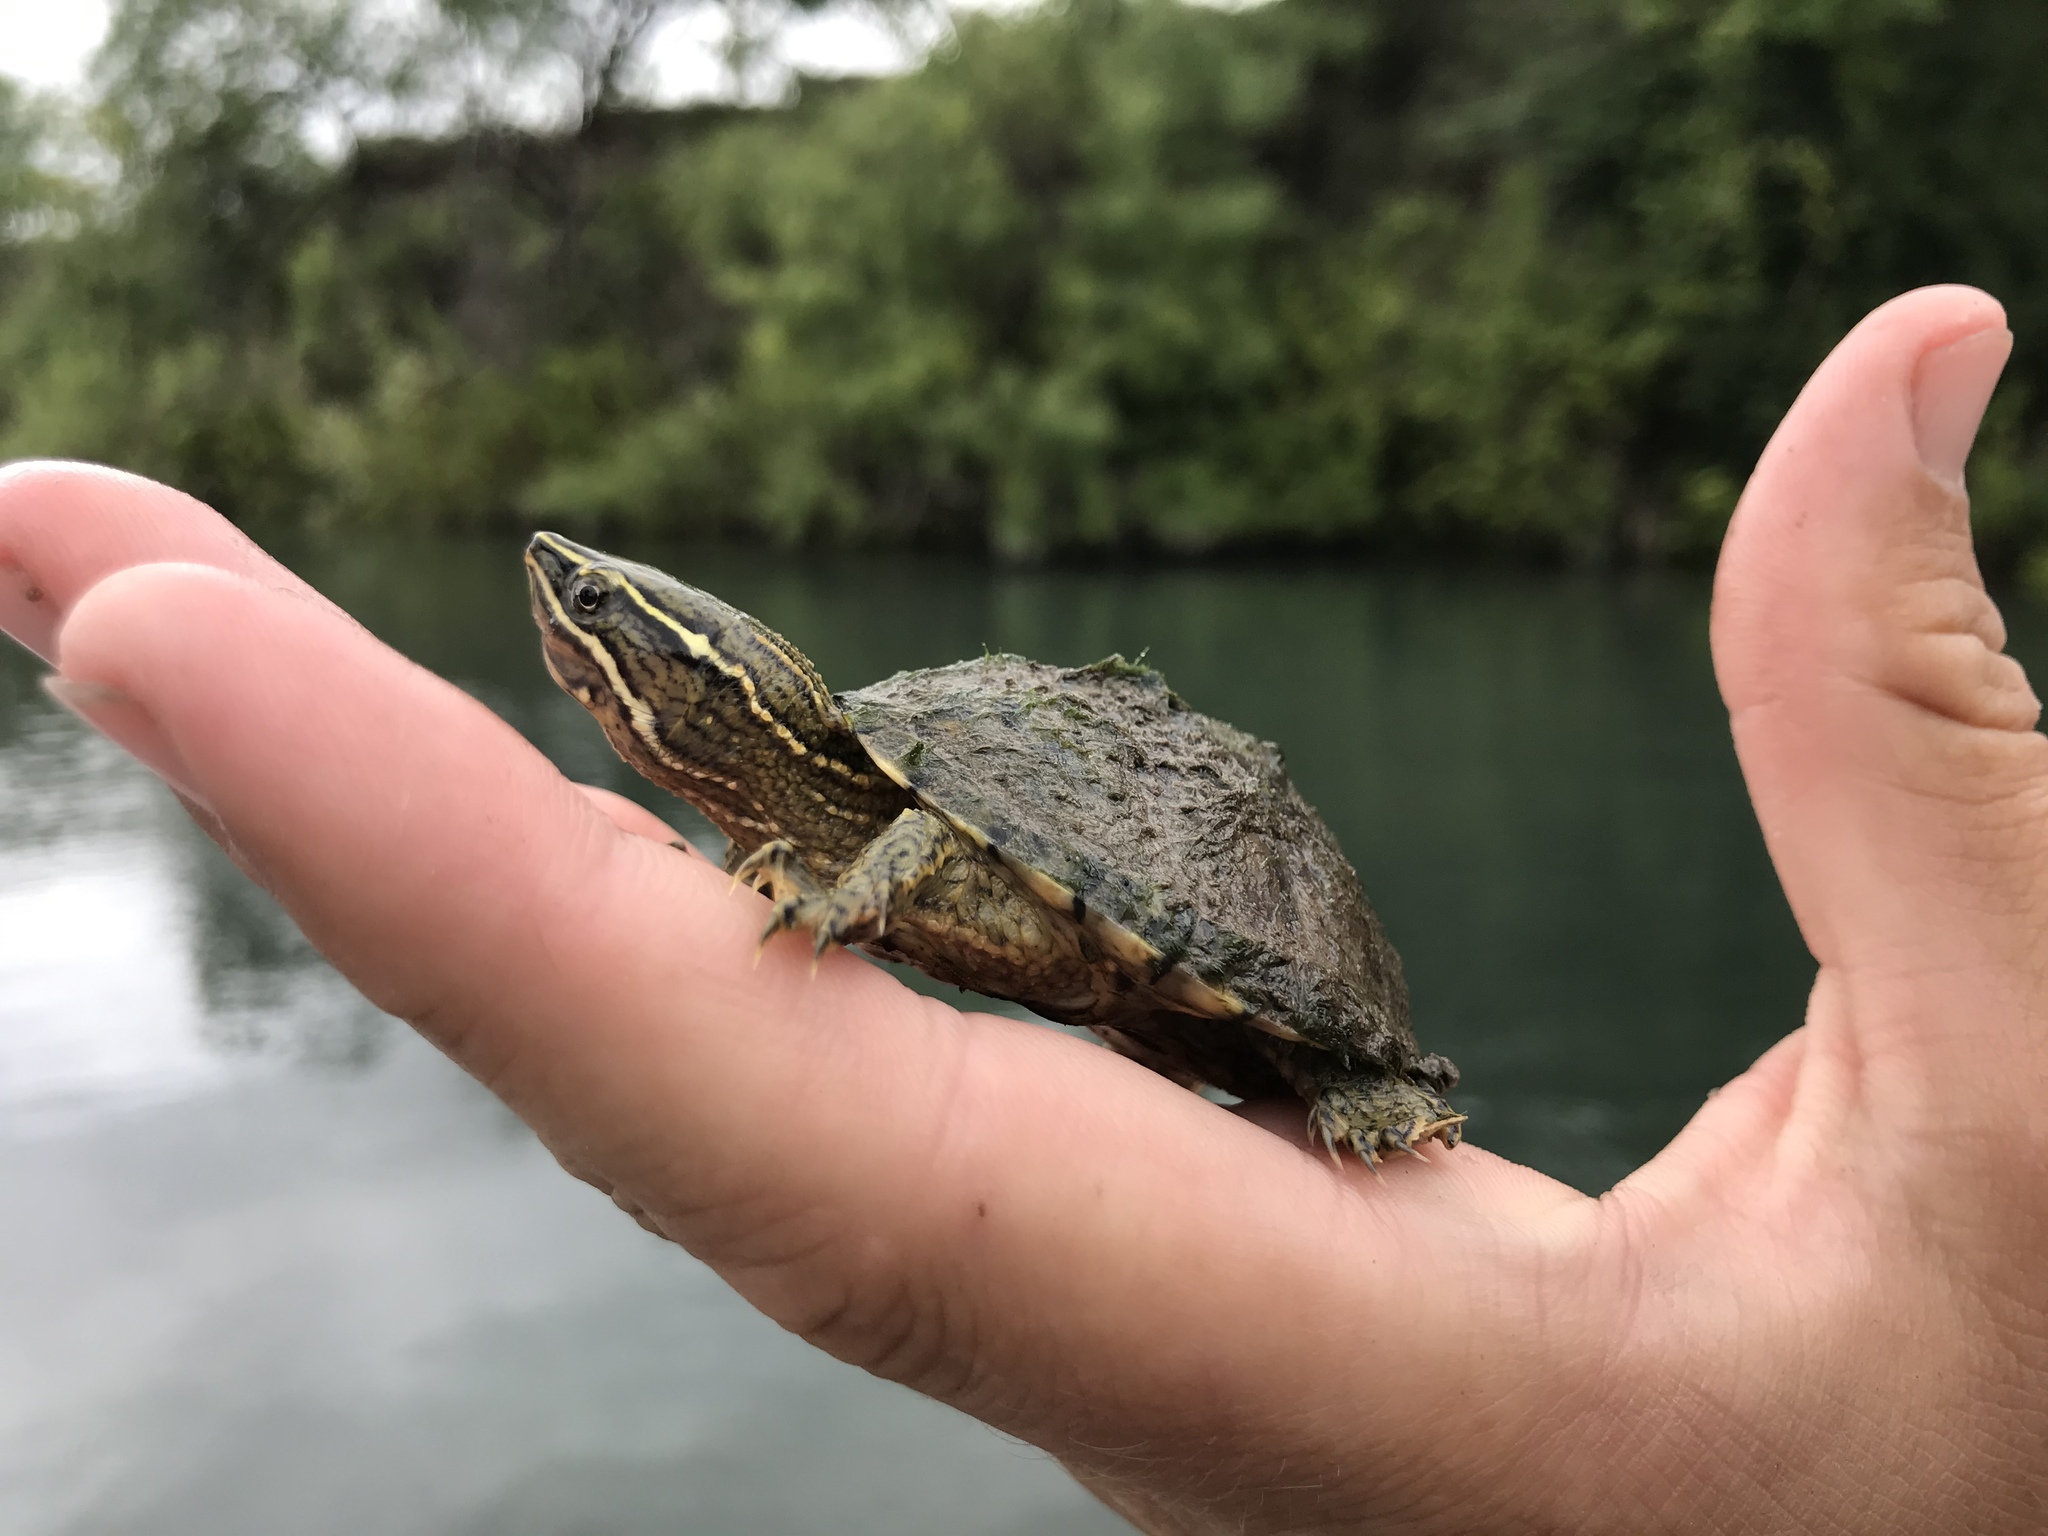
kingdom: Animalia
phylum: Chordata
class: Testudines
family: Kinosternidae
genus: Sternotherus
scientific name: Sternotherus odoratus
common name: Common musk turtle
